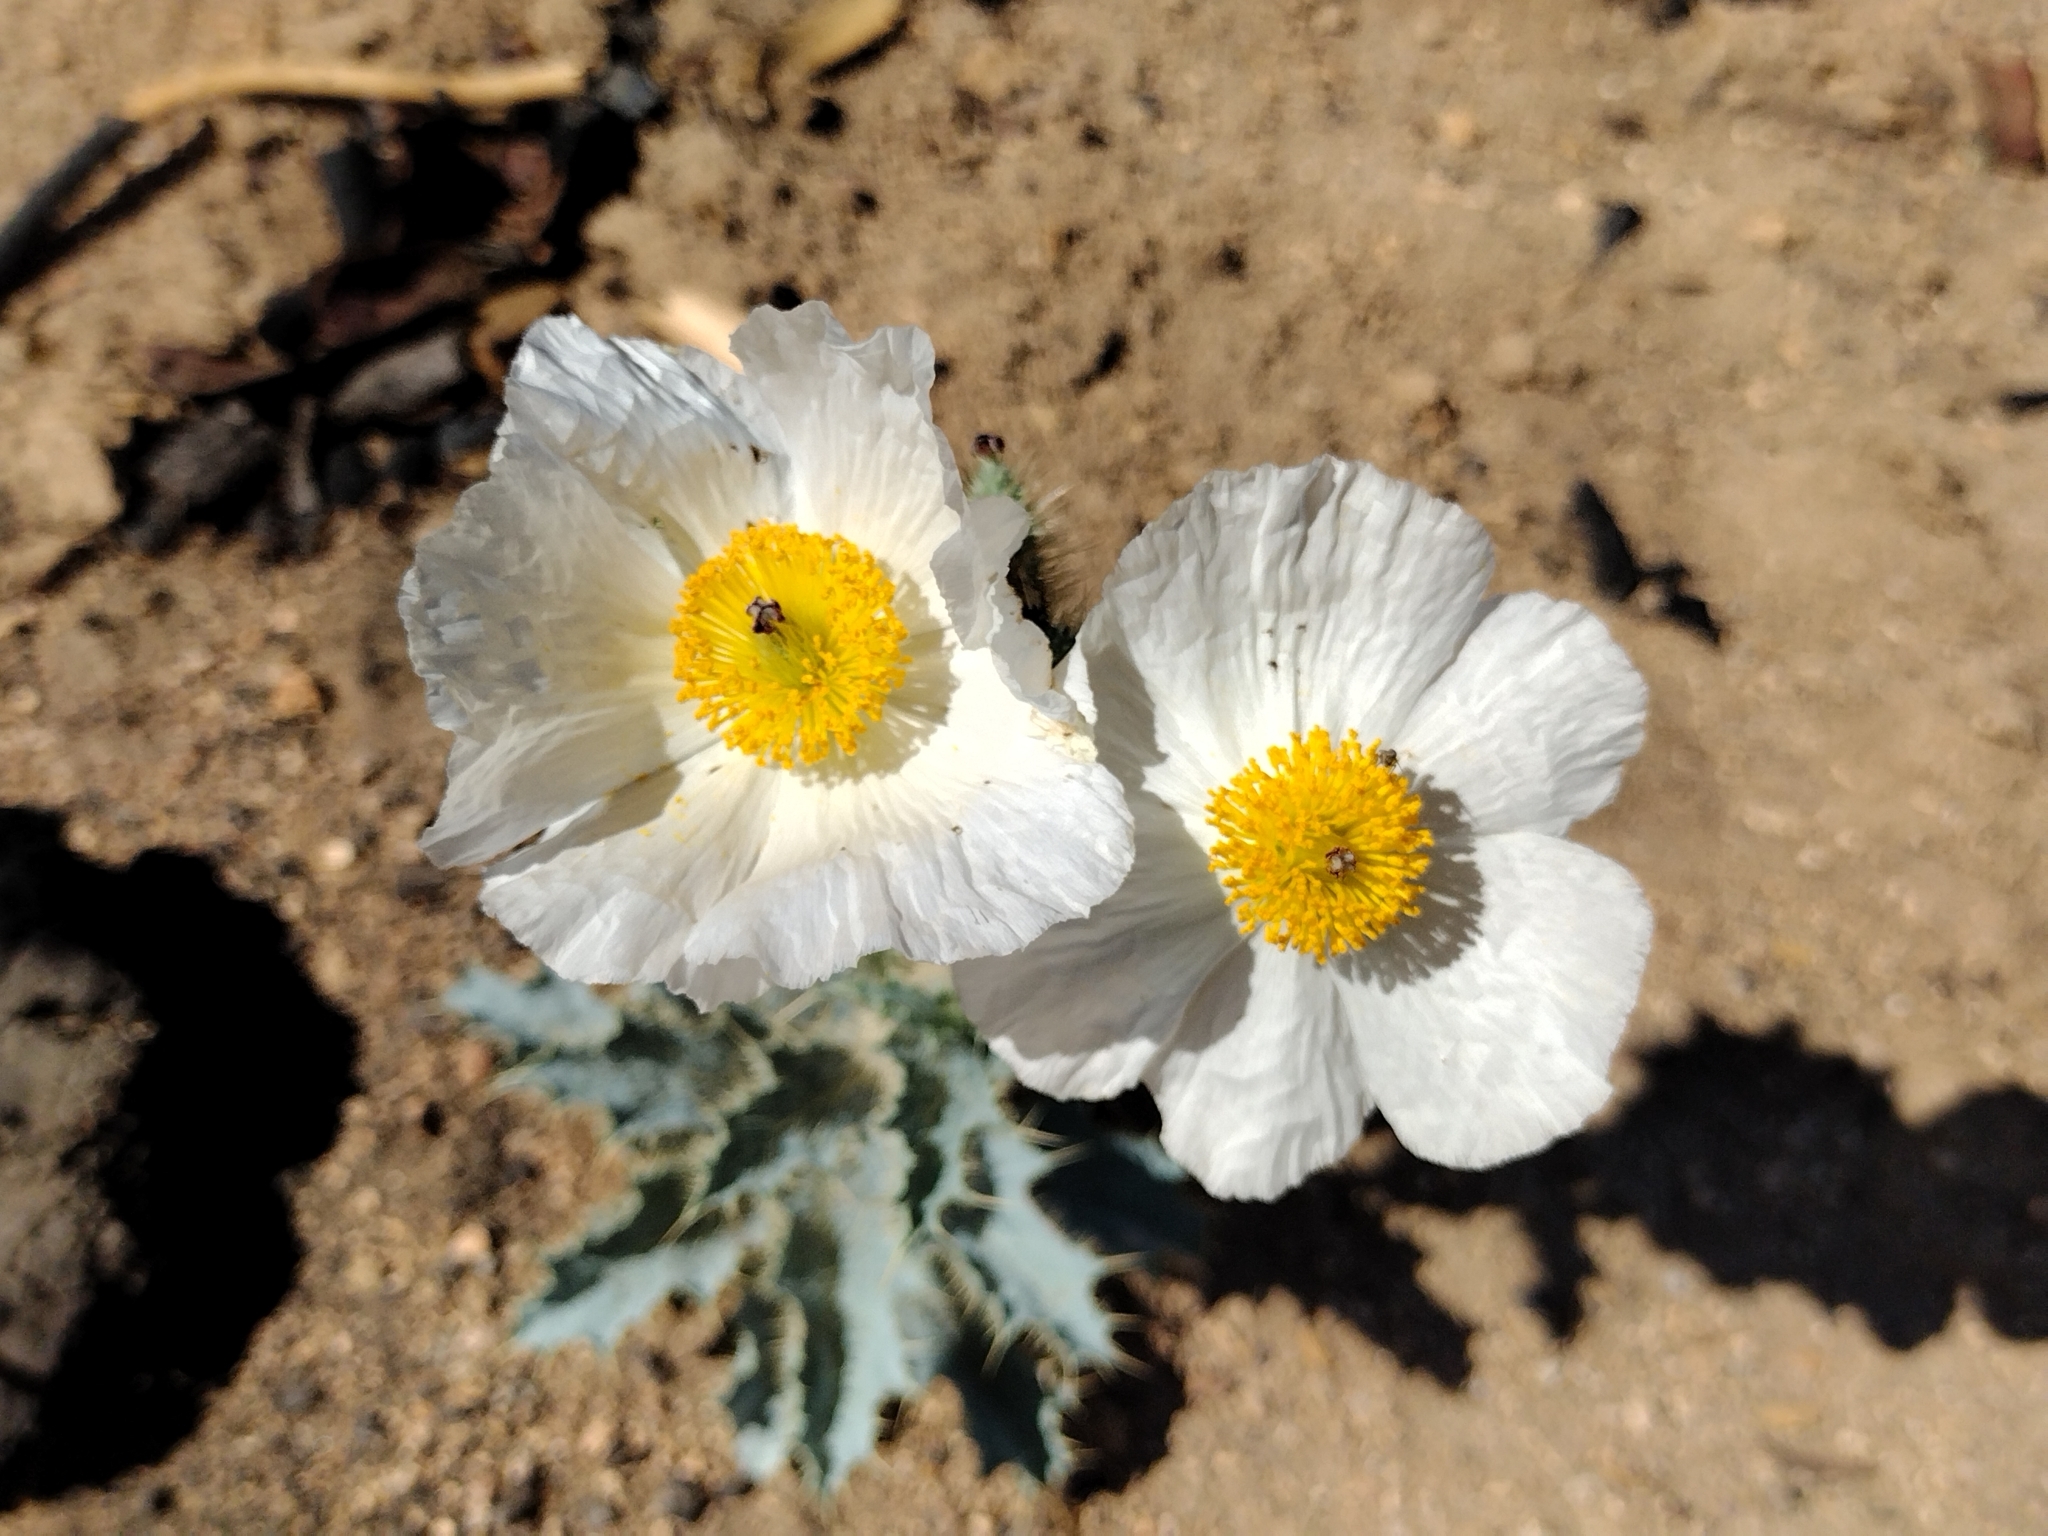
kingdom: Plantae
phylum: Tracheophyta
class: Magnoliopsida
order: Ranunculales
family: Papaveraceae
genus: Argemone
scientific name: Argemone munita
